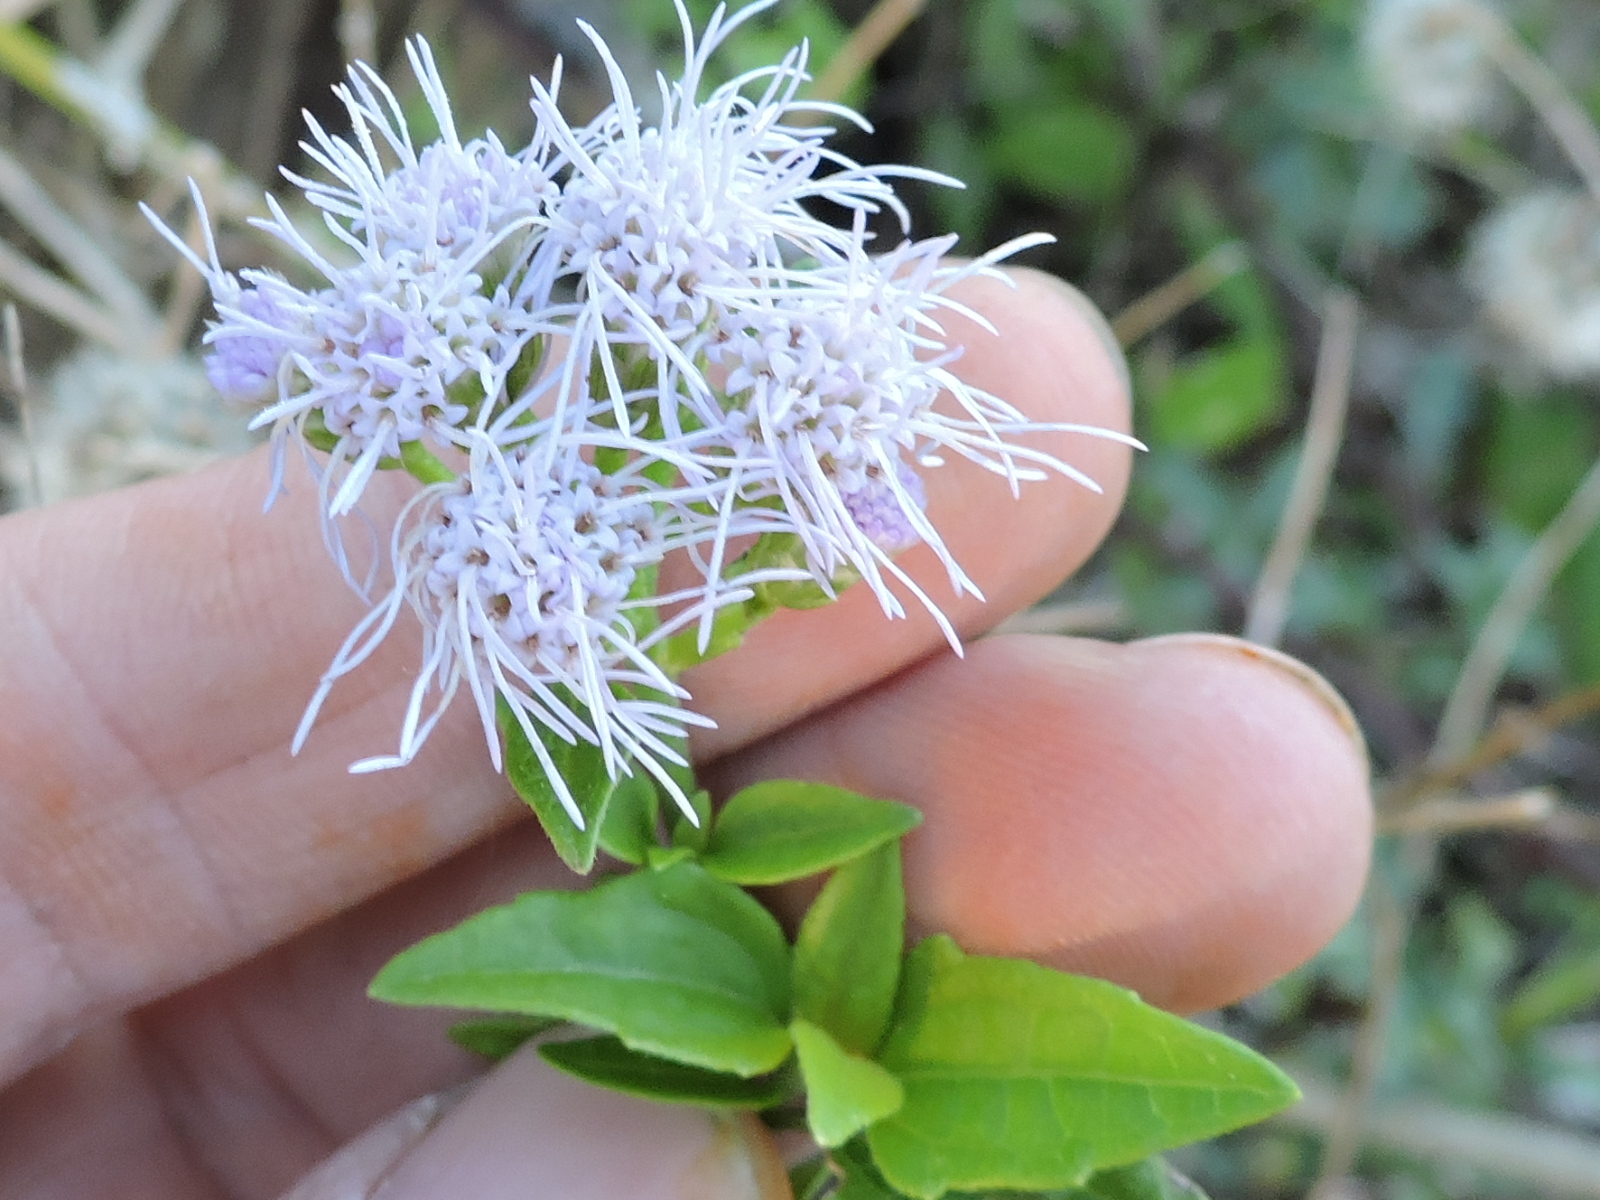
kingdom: Plantae
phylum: Tracheophyta
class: Magnoliopsida
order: Asterales
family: Asteraceae
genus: Chromolaena
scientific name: Chromolaena odorata
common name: Siamweed
